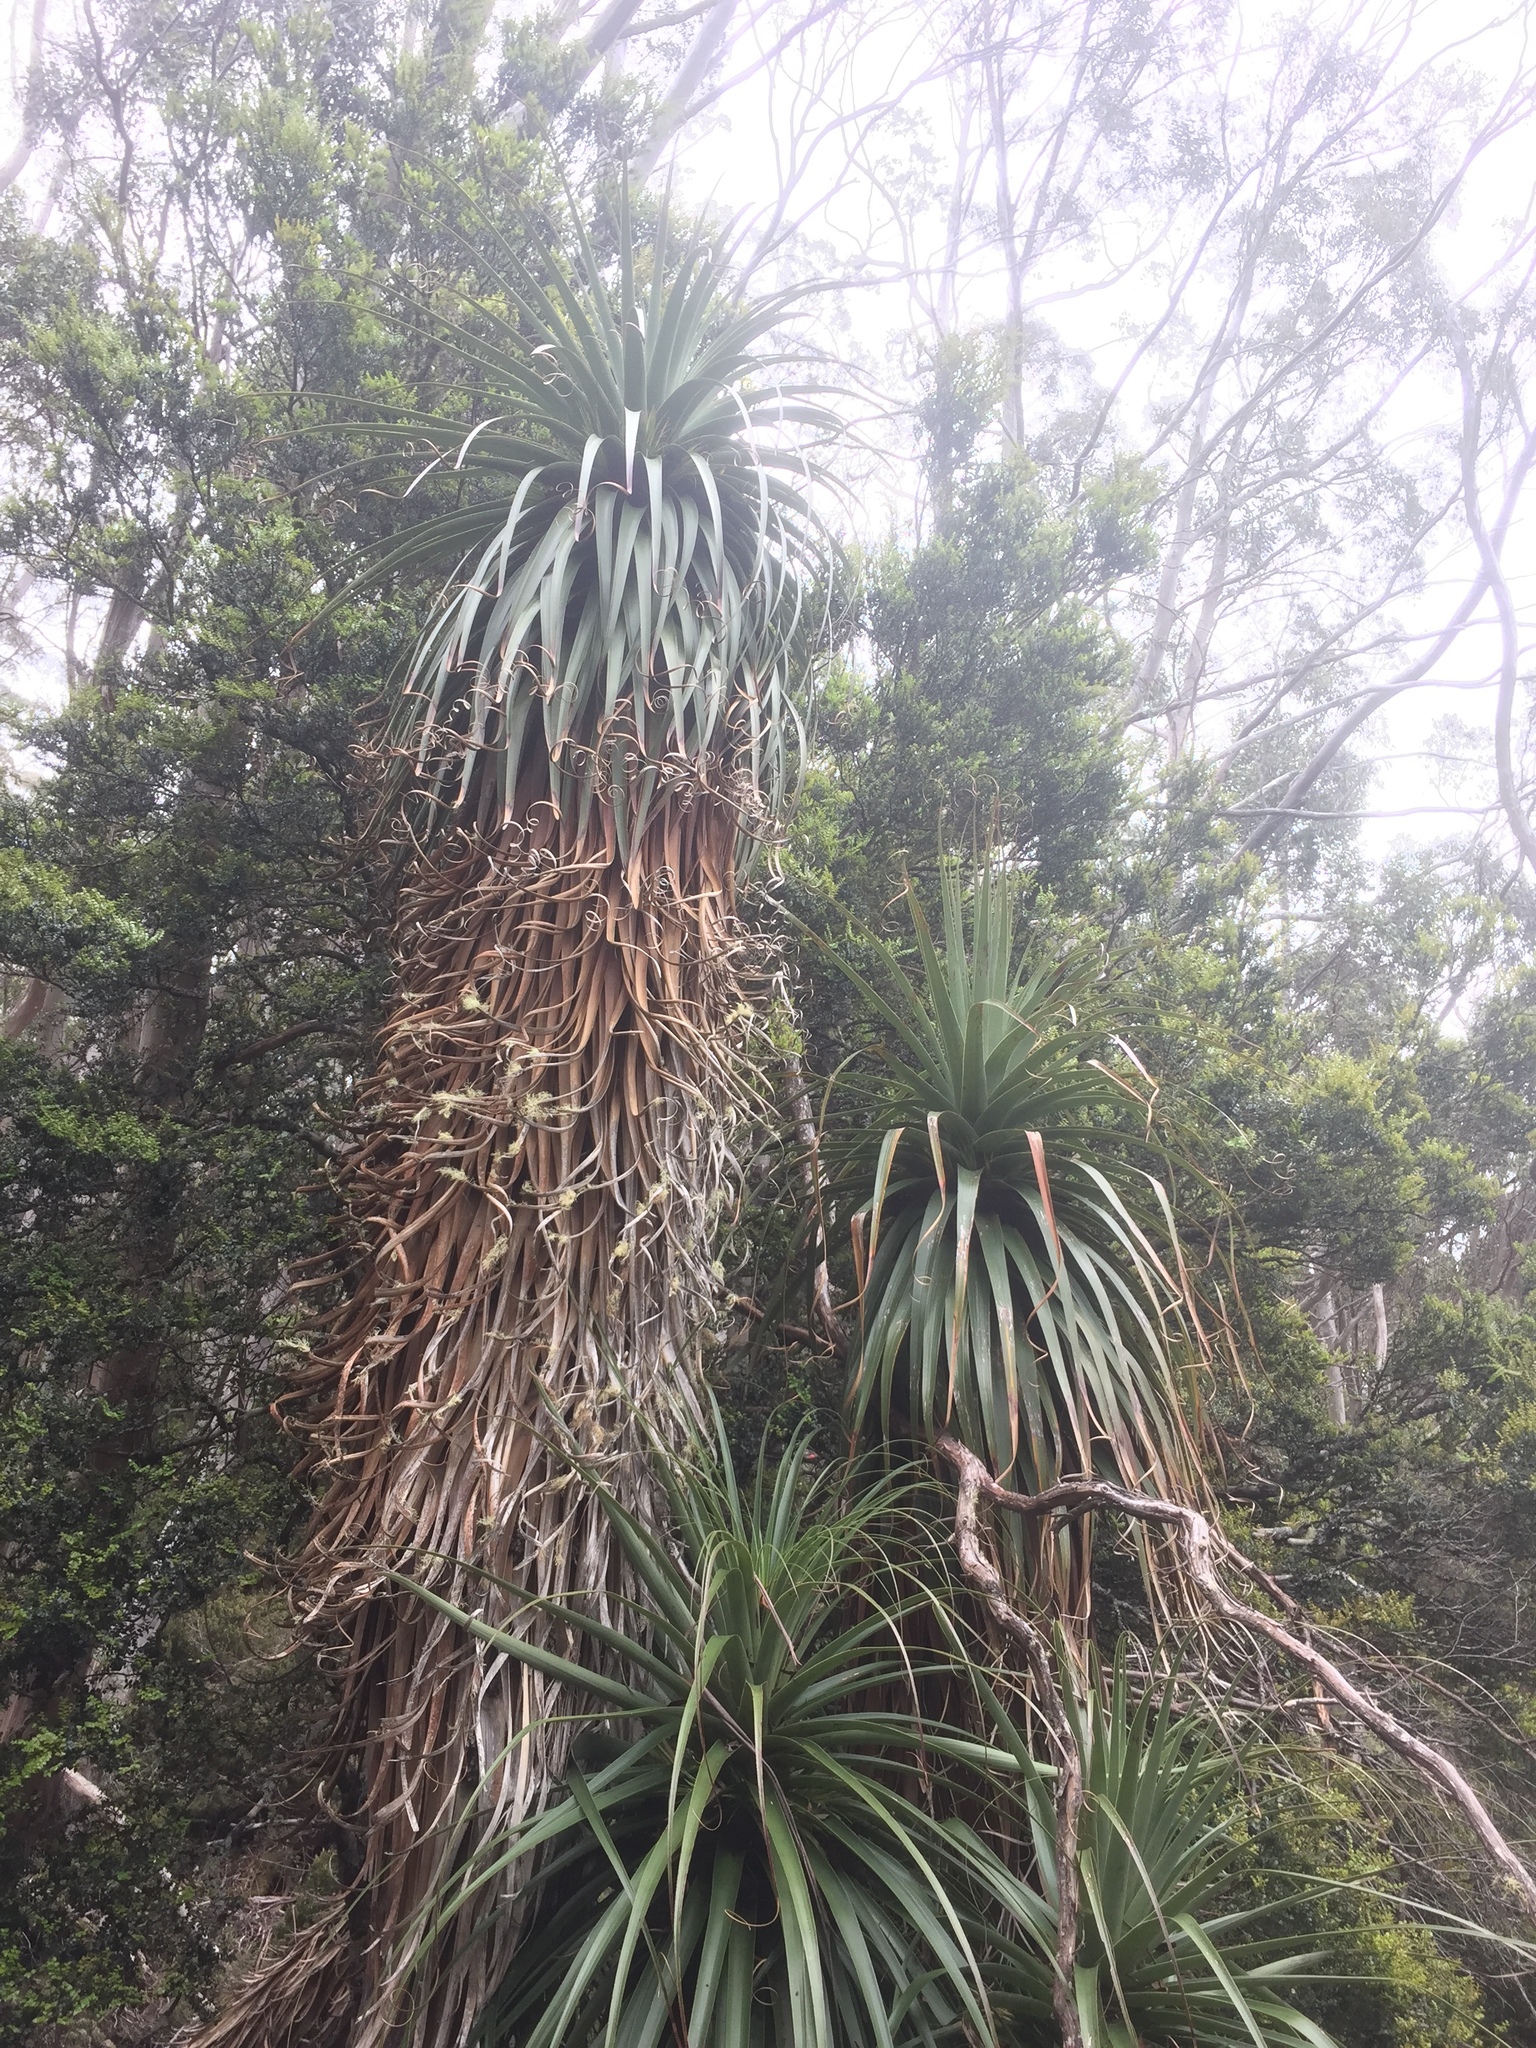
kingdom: Plantae
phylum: Tracheophyta
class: Magnoliopsida
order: Ericales
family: Ericaceae
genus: Dracophyllum
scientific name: Dracophyllum pandanifolium
